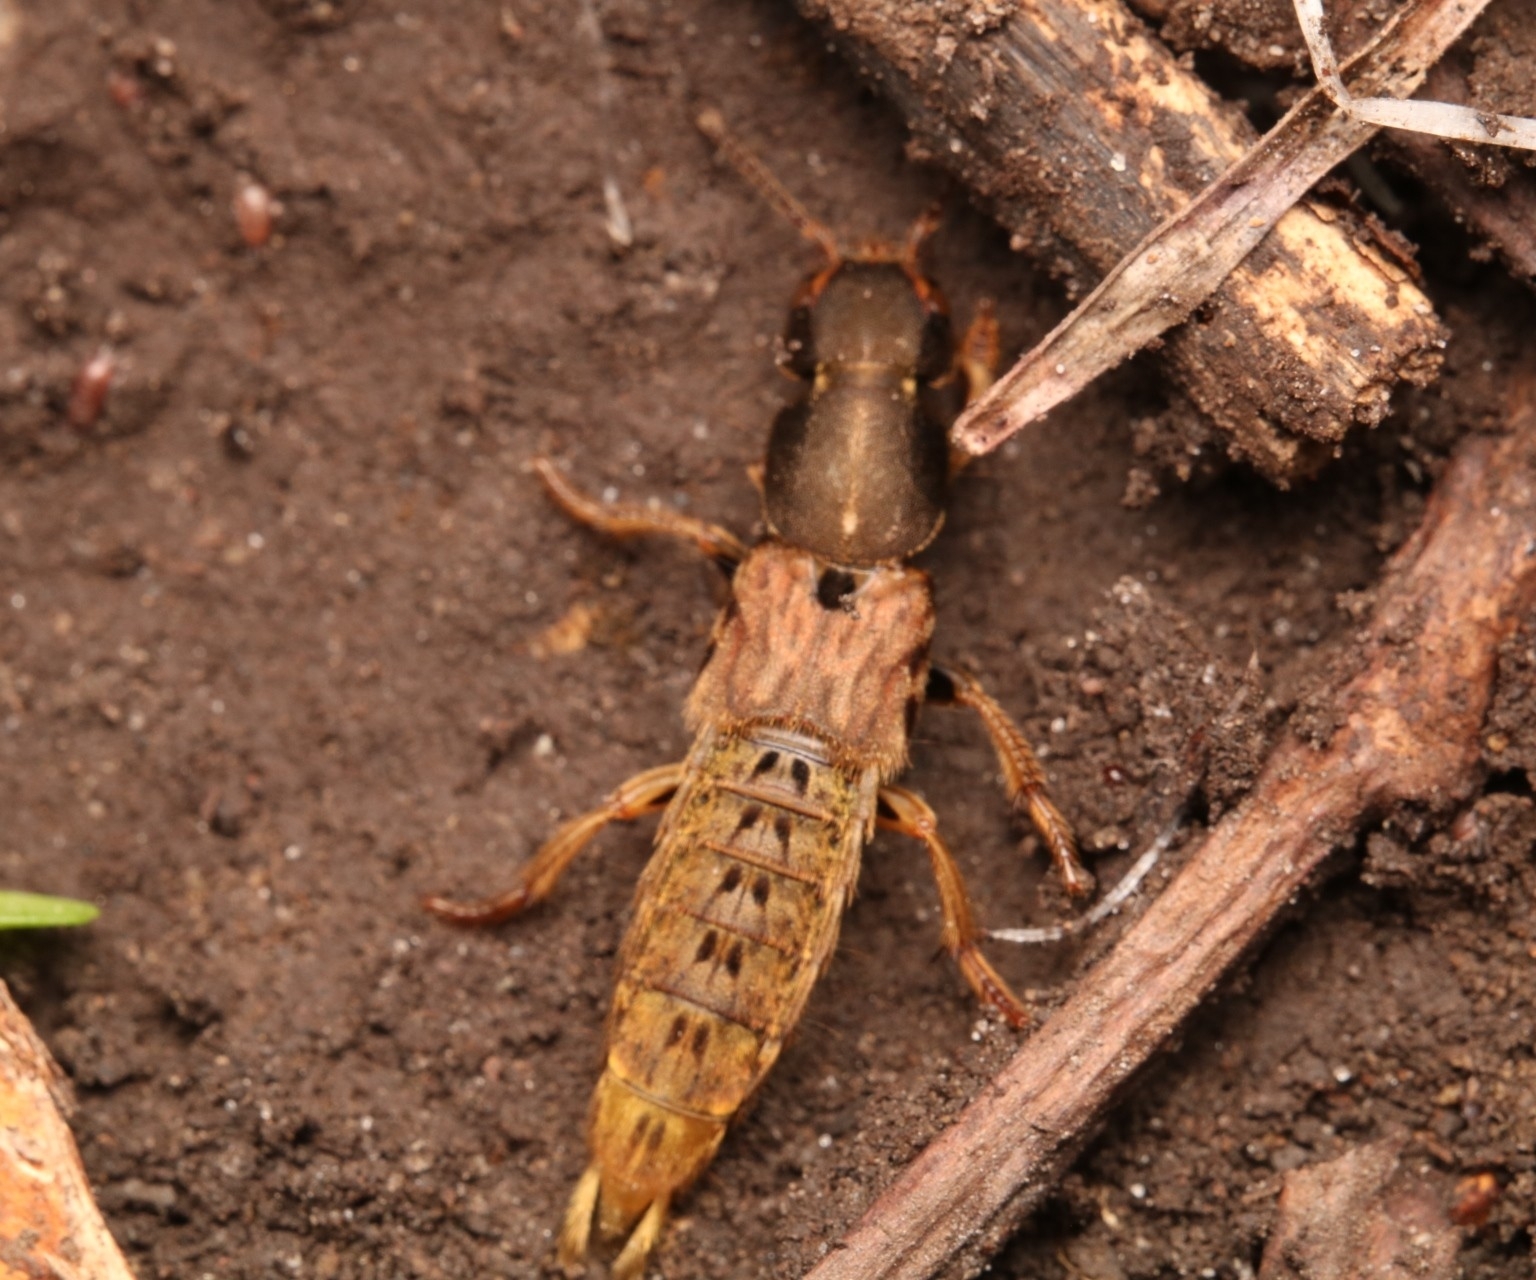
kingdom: Animalia
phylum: Arthropoda
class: Insecta
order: Coleoptera
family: Staphylinidae
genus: Platydracus
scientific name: Platydracus maculosus
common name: Brown rove beetle
